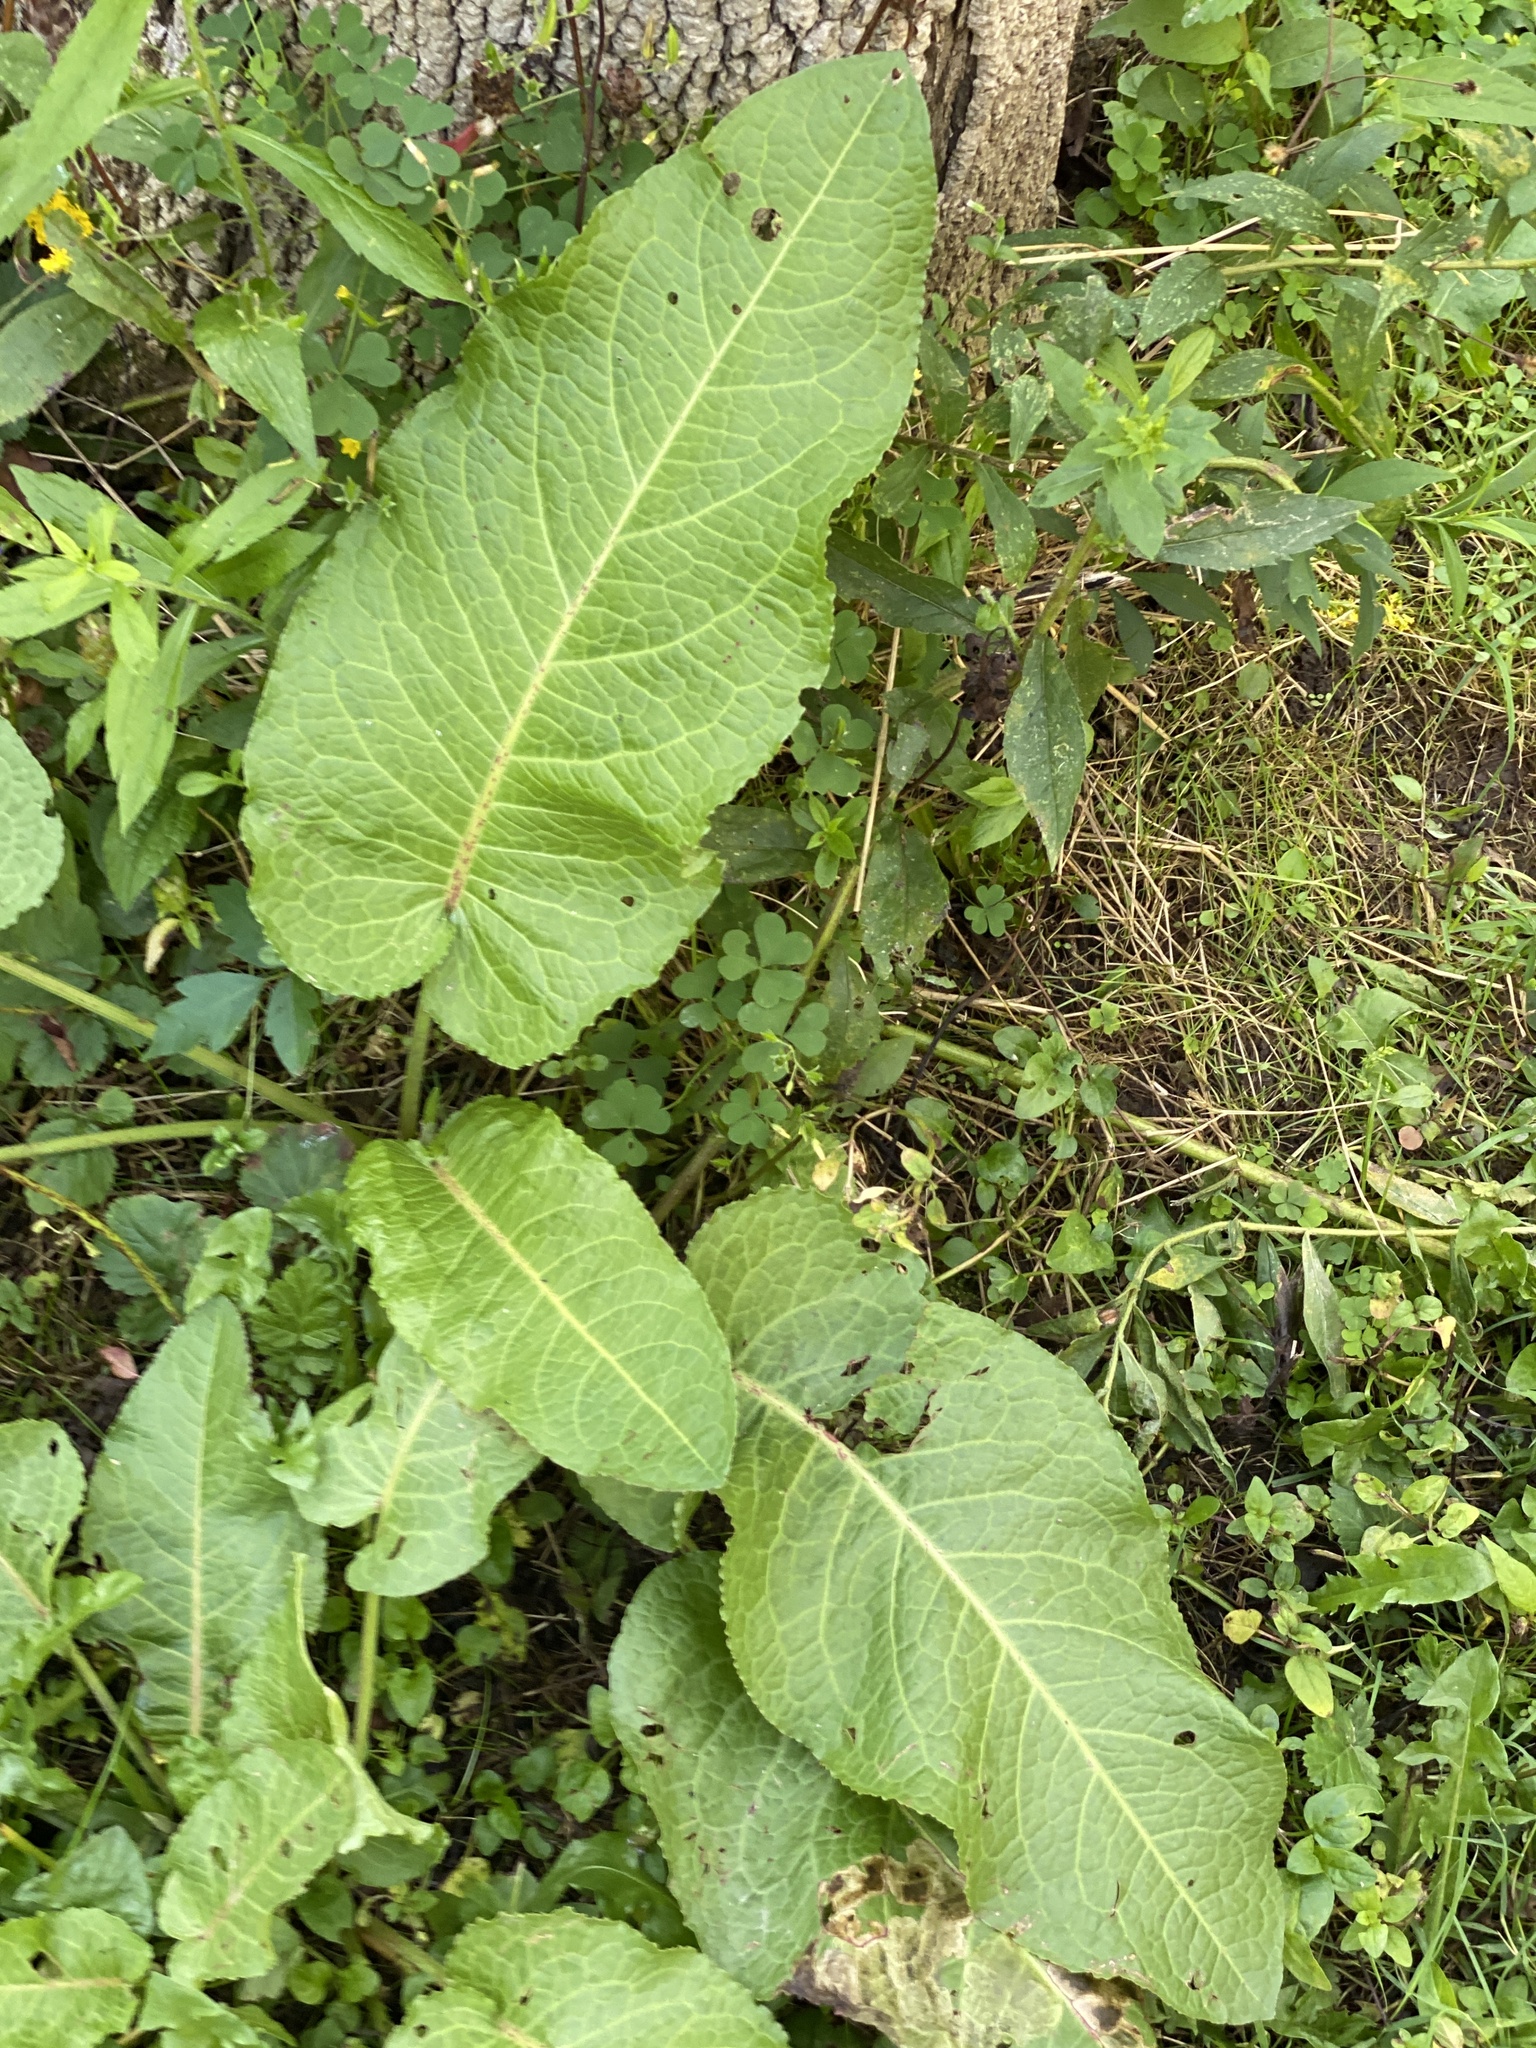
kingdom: Plantae
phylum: Tracheophyta
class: Magnoliopsida
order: Caryophyllales
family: Polygonaceae
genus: Rumex
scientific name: Rumex obtusifolius
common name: Bitter dock
